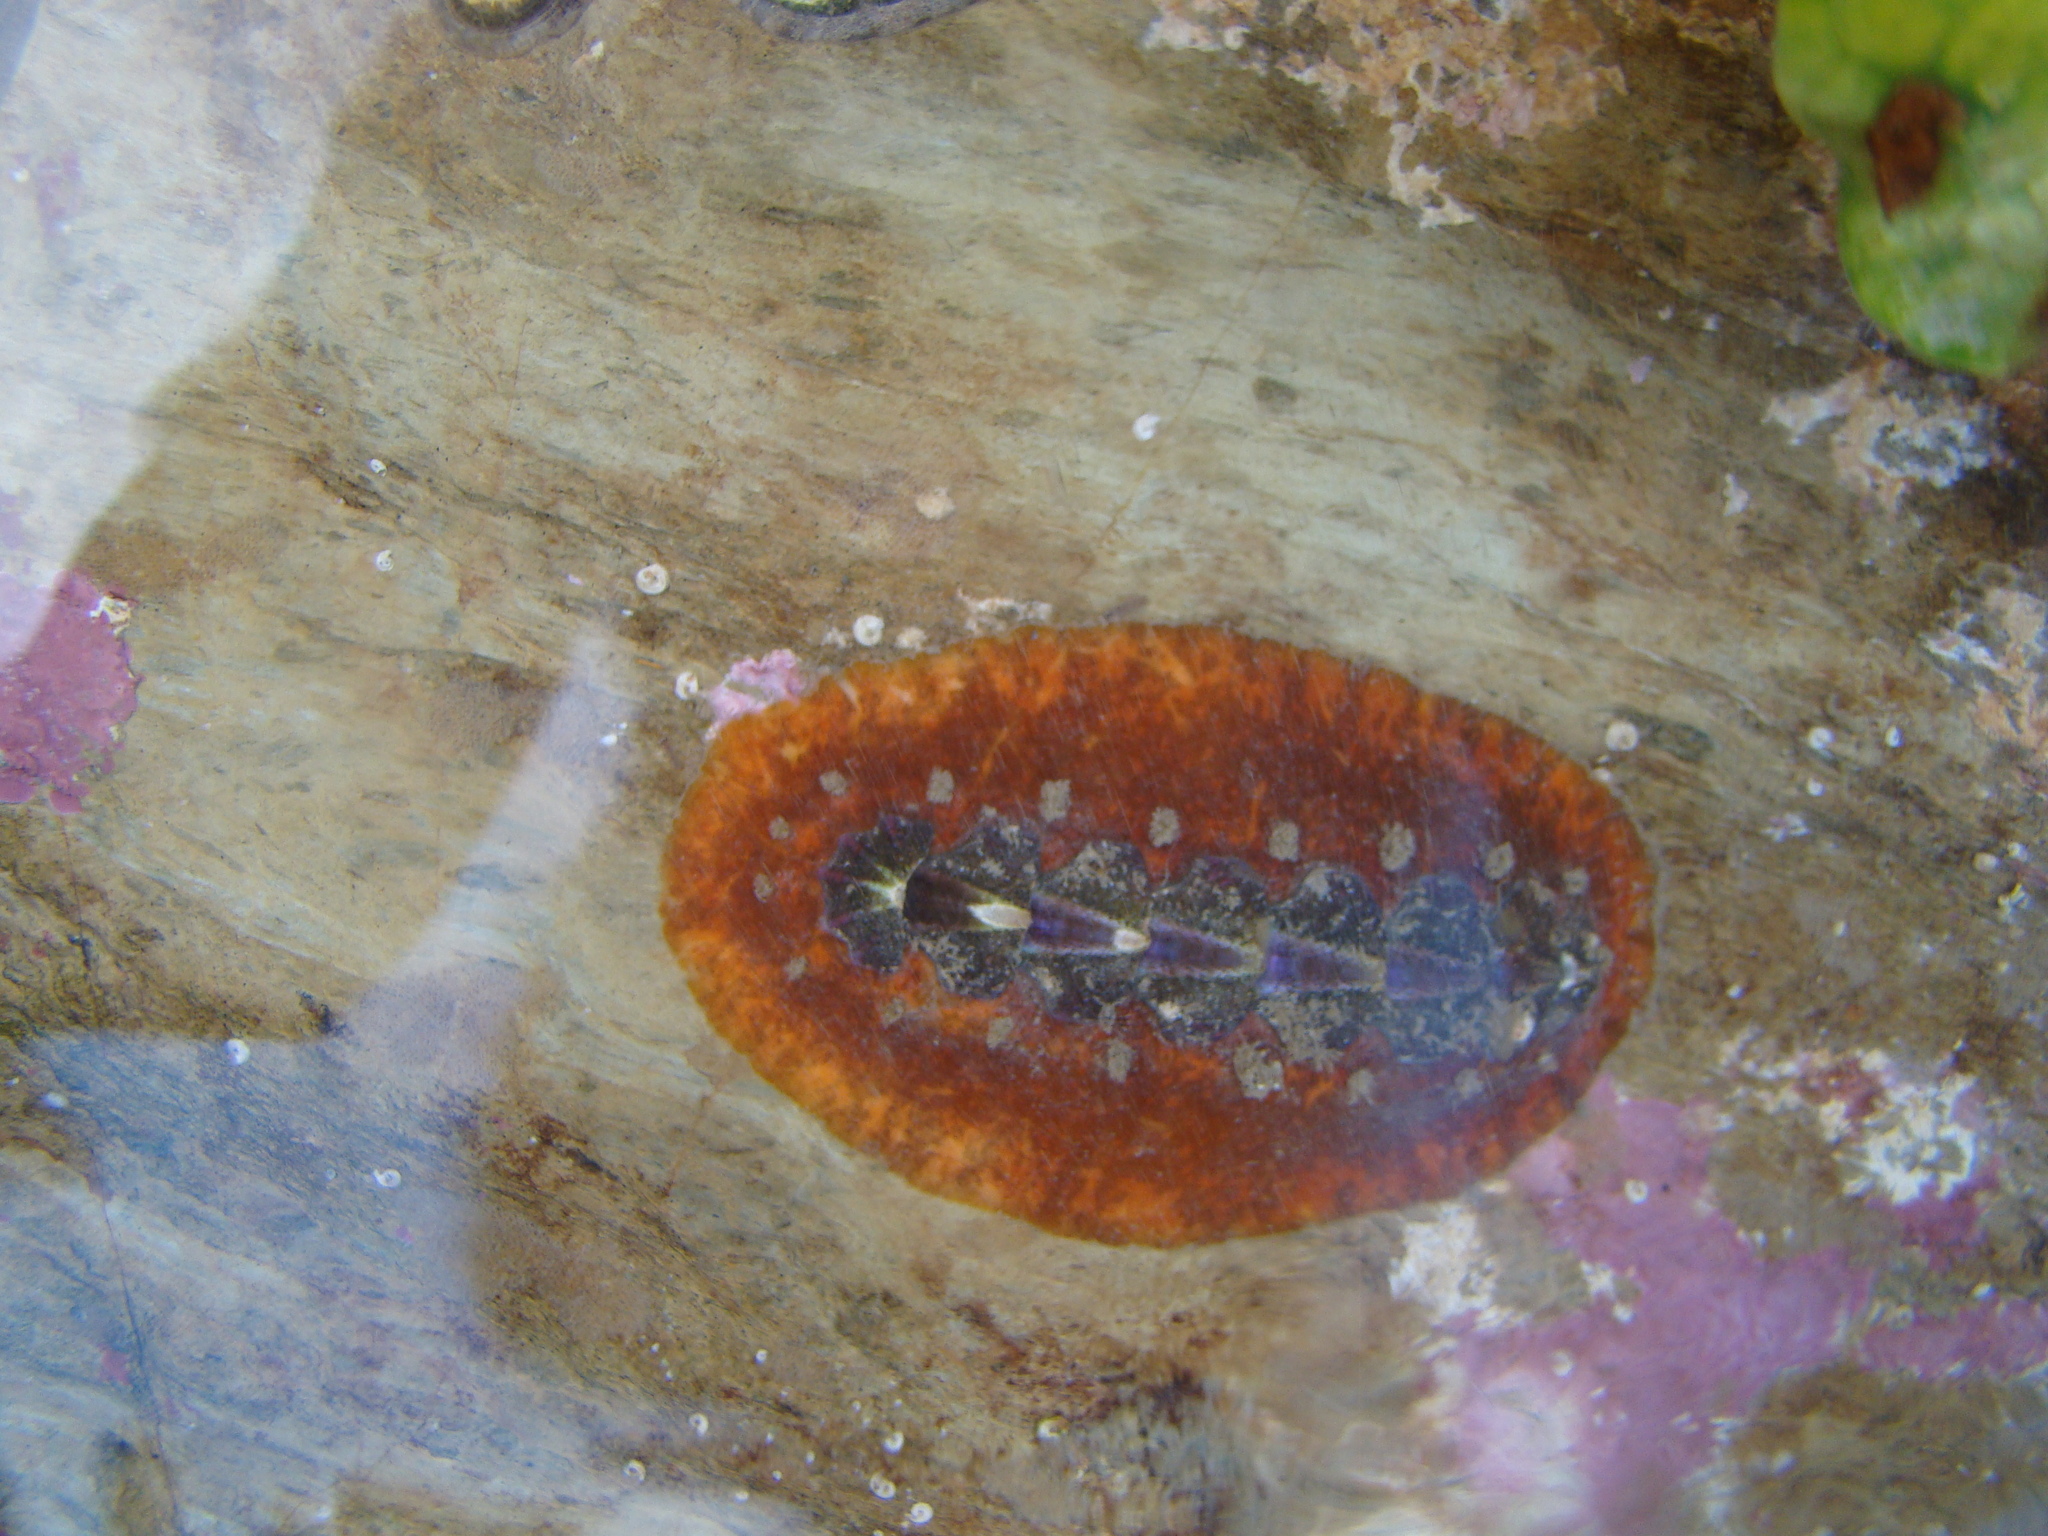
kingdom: Animalia
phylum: Mollusca
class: Polyplacophora
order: Chitonida
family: Acanthochitonidae
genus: Notoplax
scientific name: Notoplax violacea
